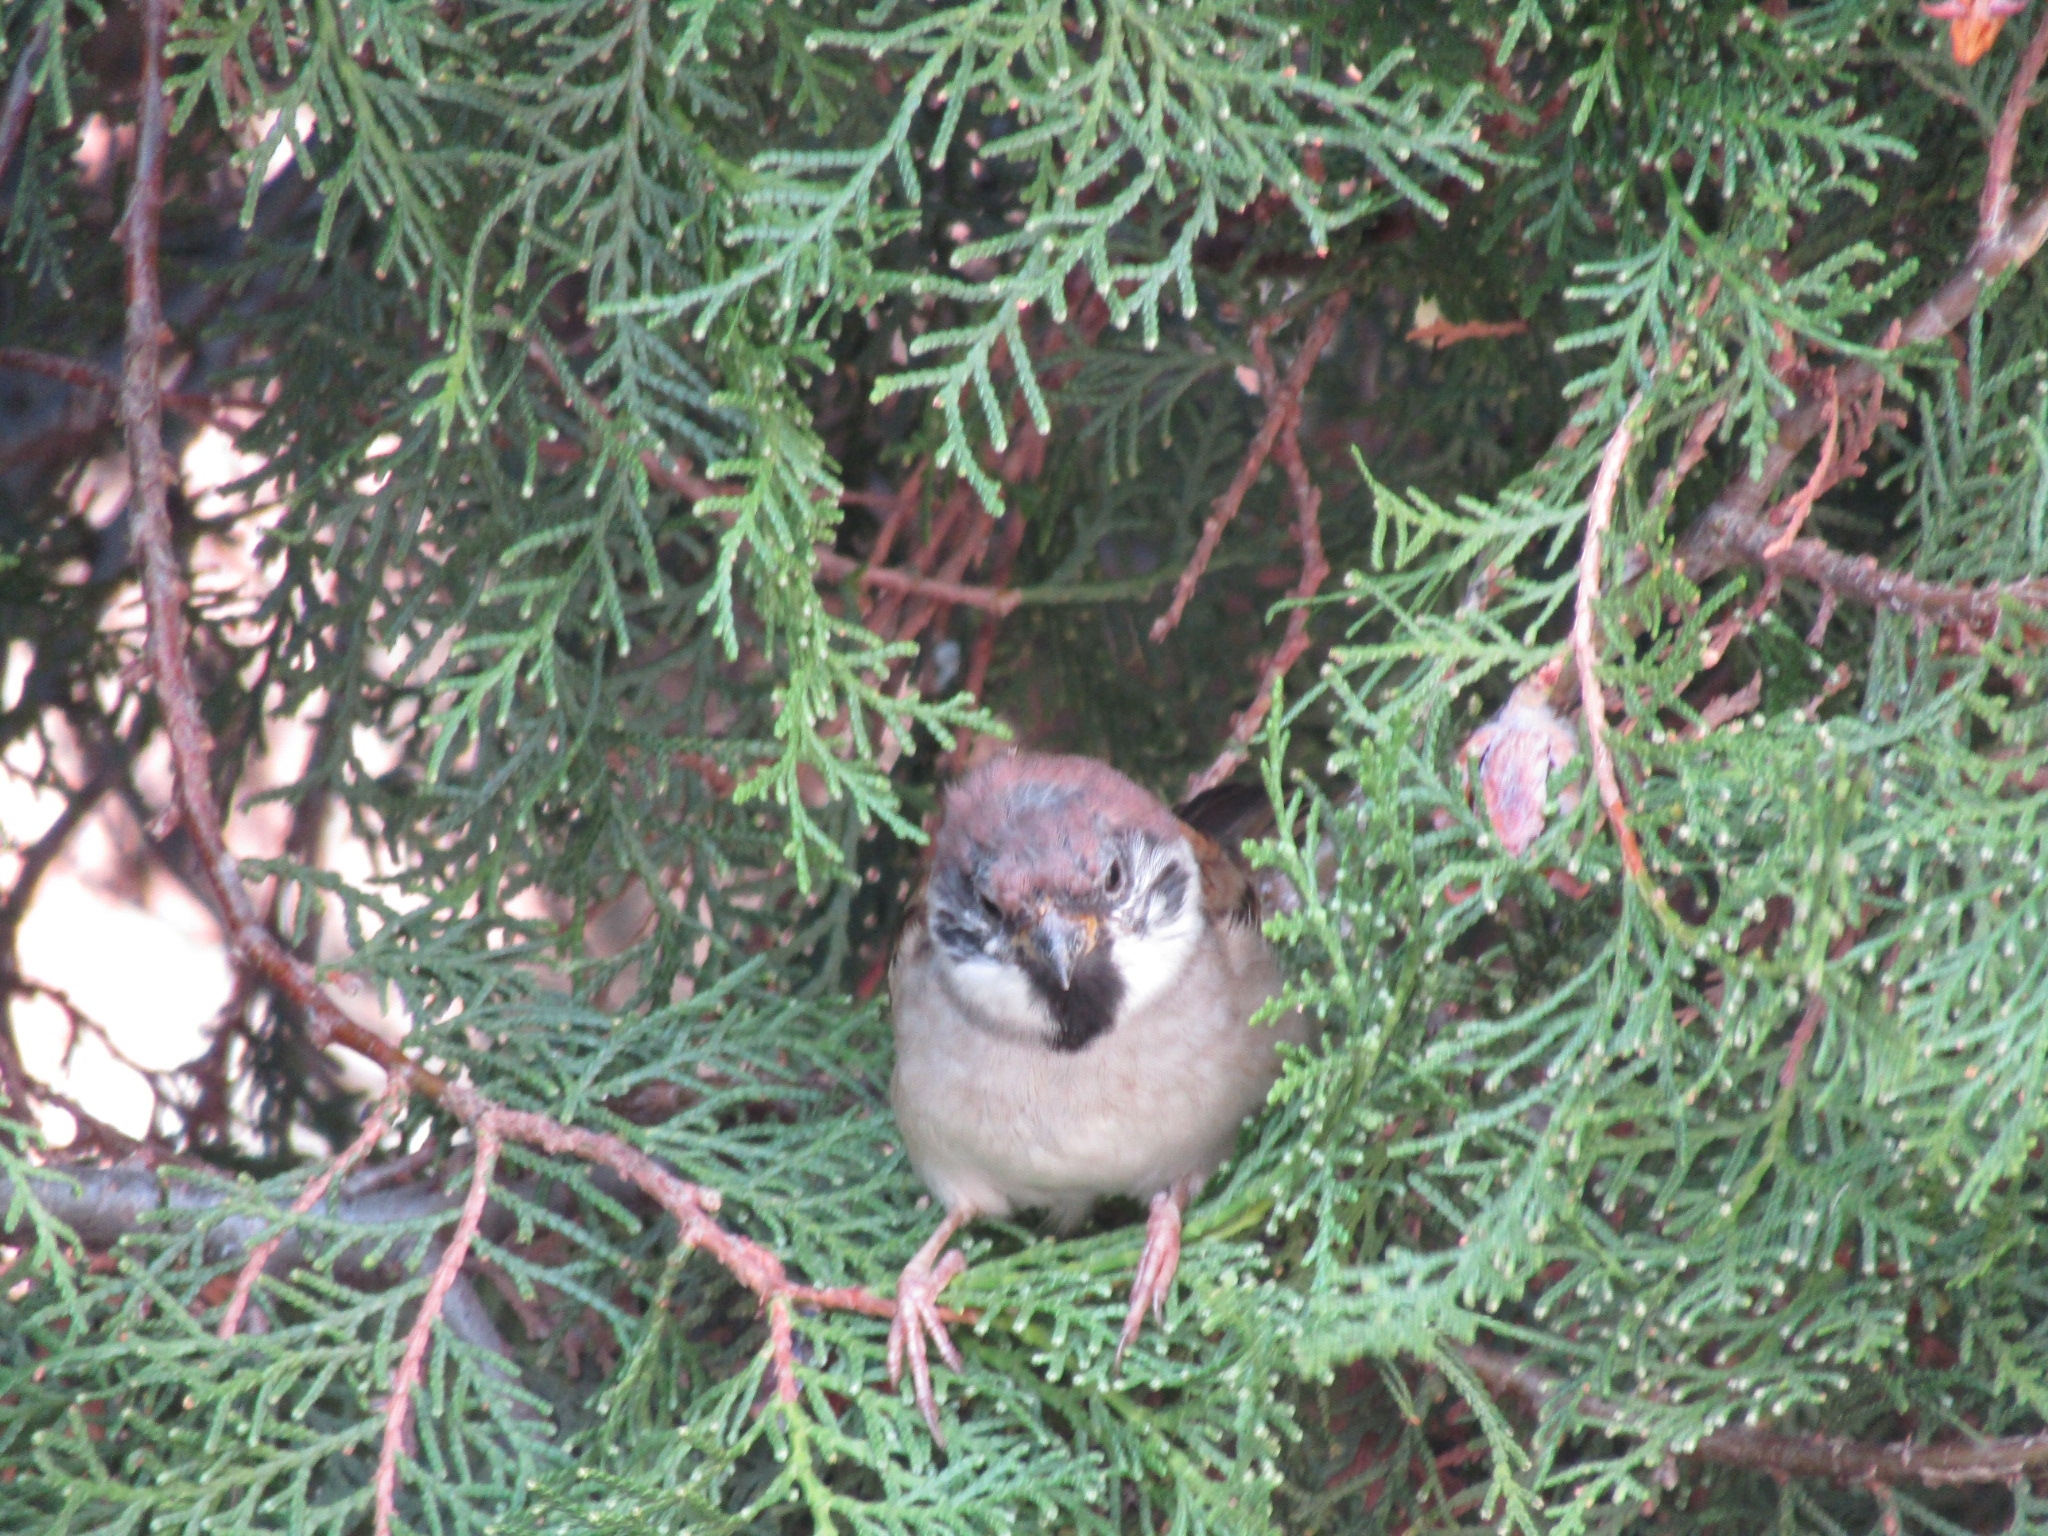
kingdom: Animalia
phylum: Chordata
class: Aves
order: Passeriformes
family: Passeridae
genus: Passer
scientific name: Passer montanus
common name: Eurasian tree sparrow
